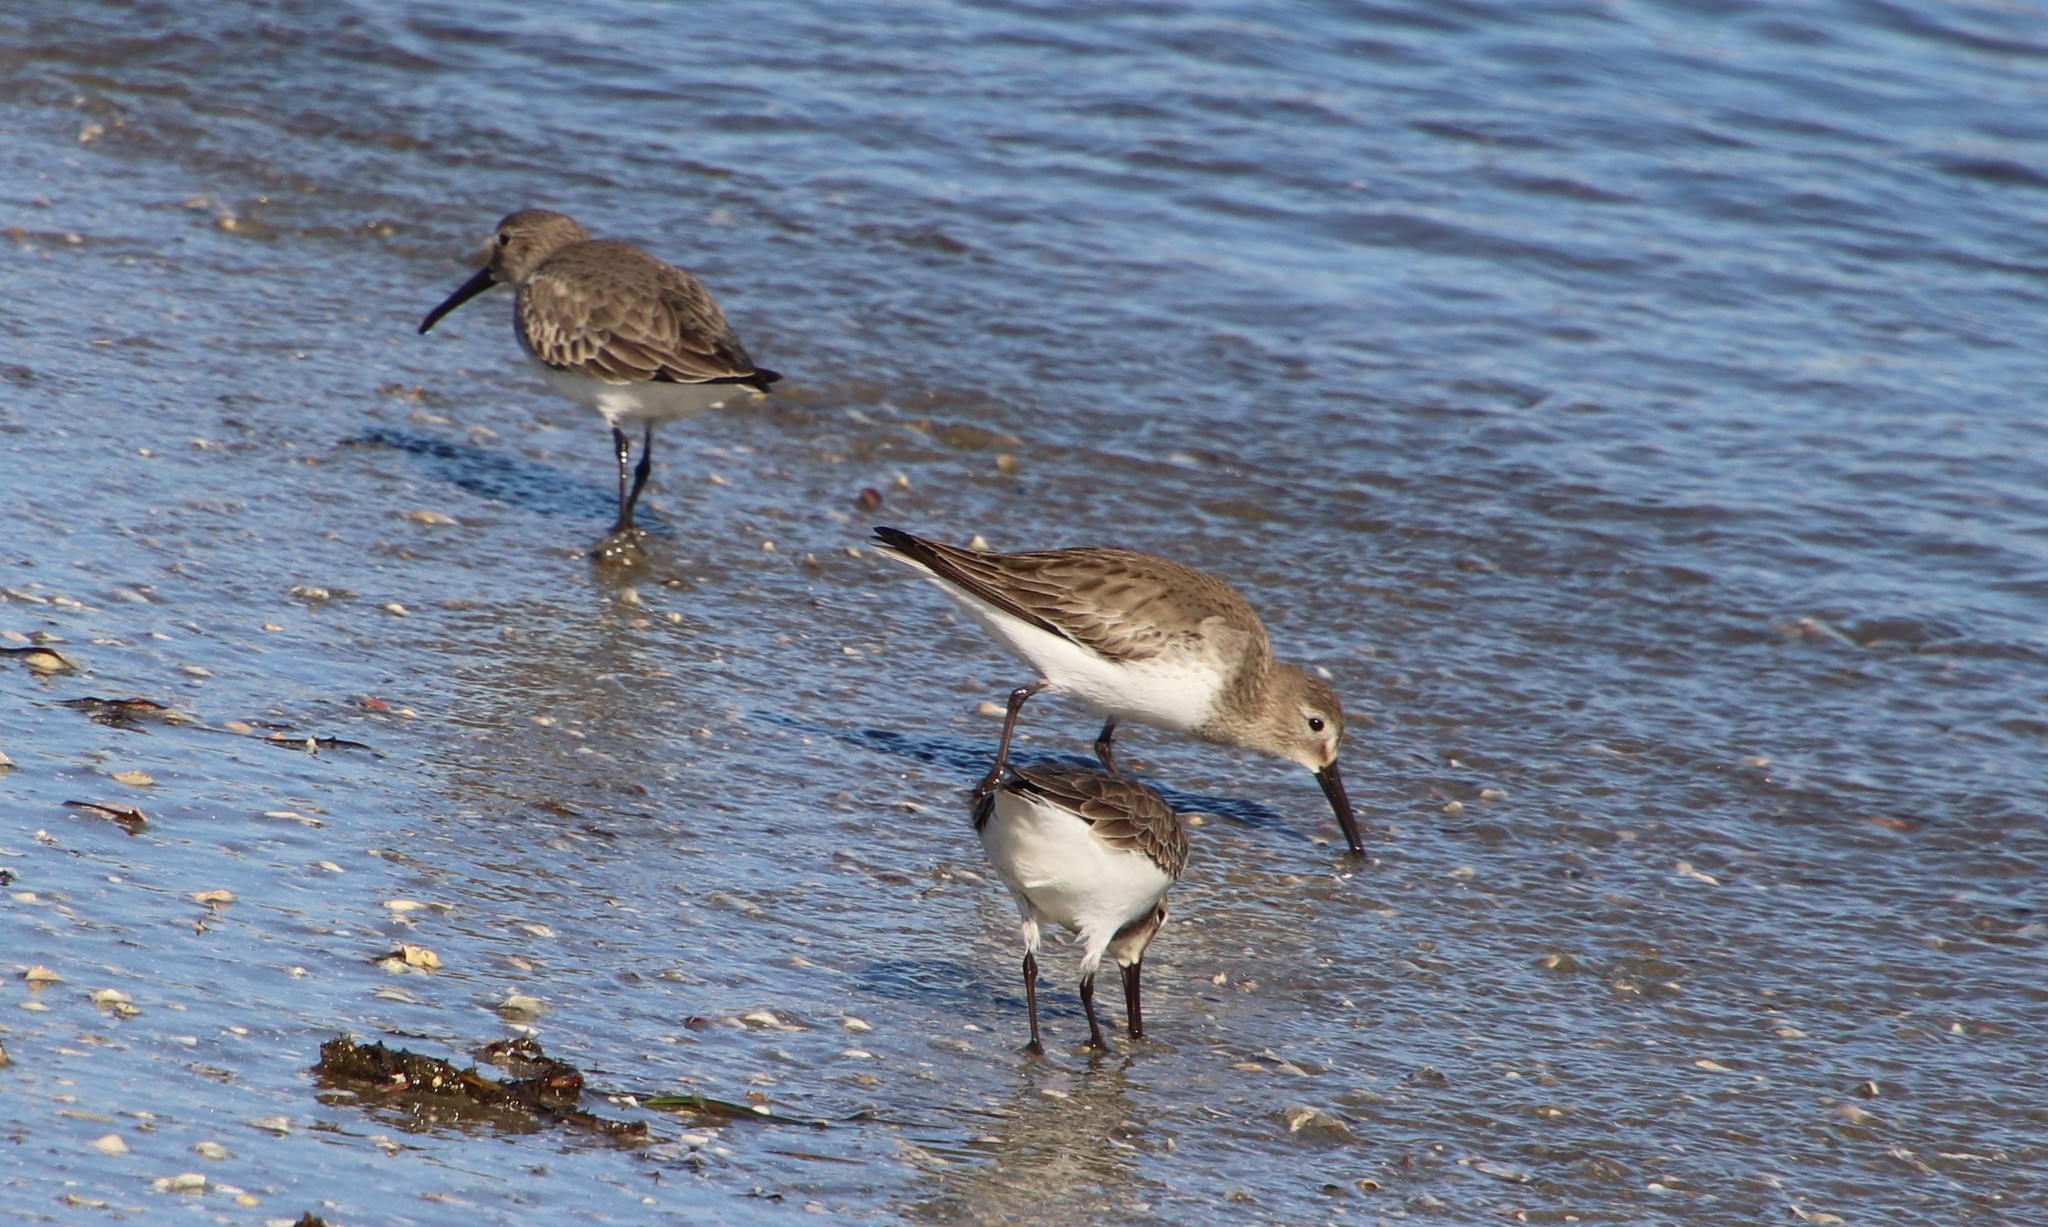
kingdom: Animalia
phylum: Chordata
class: Aves
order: Charadriiformes
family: Scolopacidae
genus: Calidris
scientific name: Calidris alpina
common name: Dunlin
